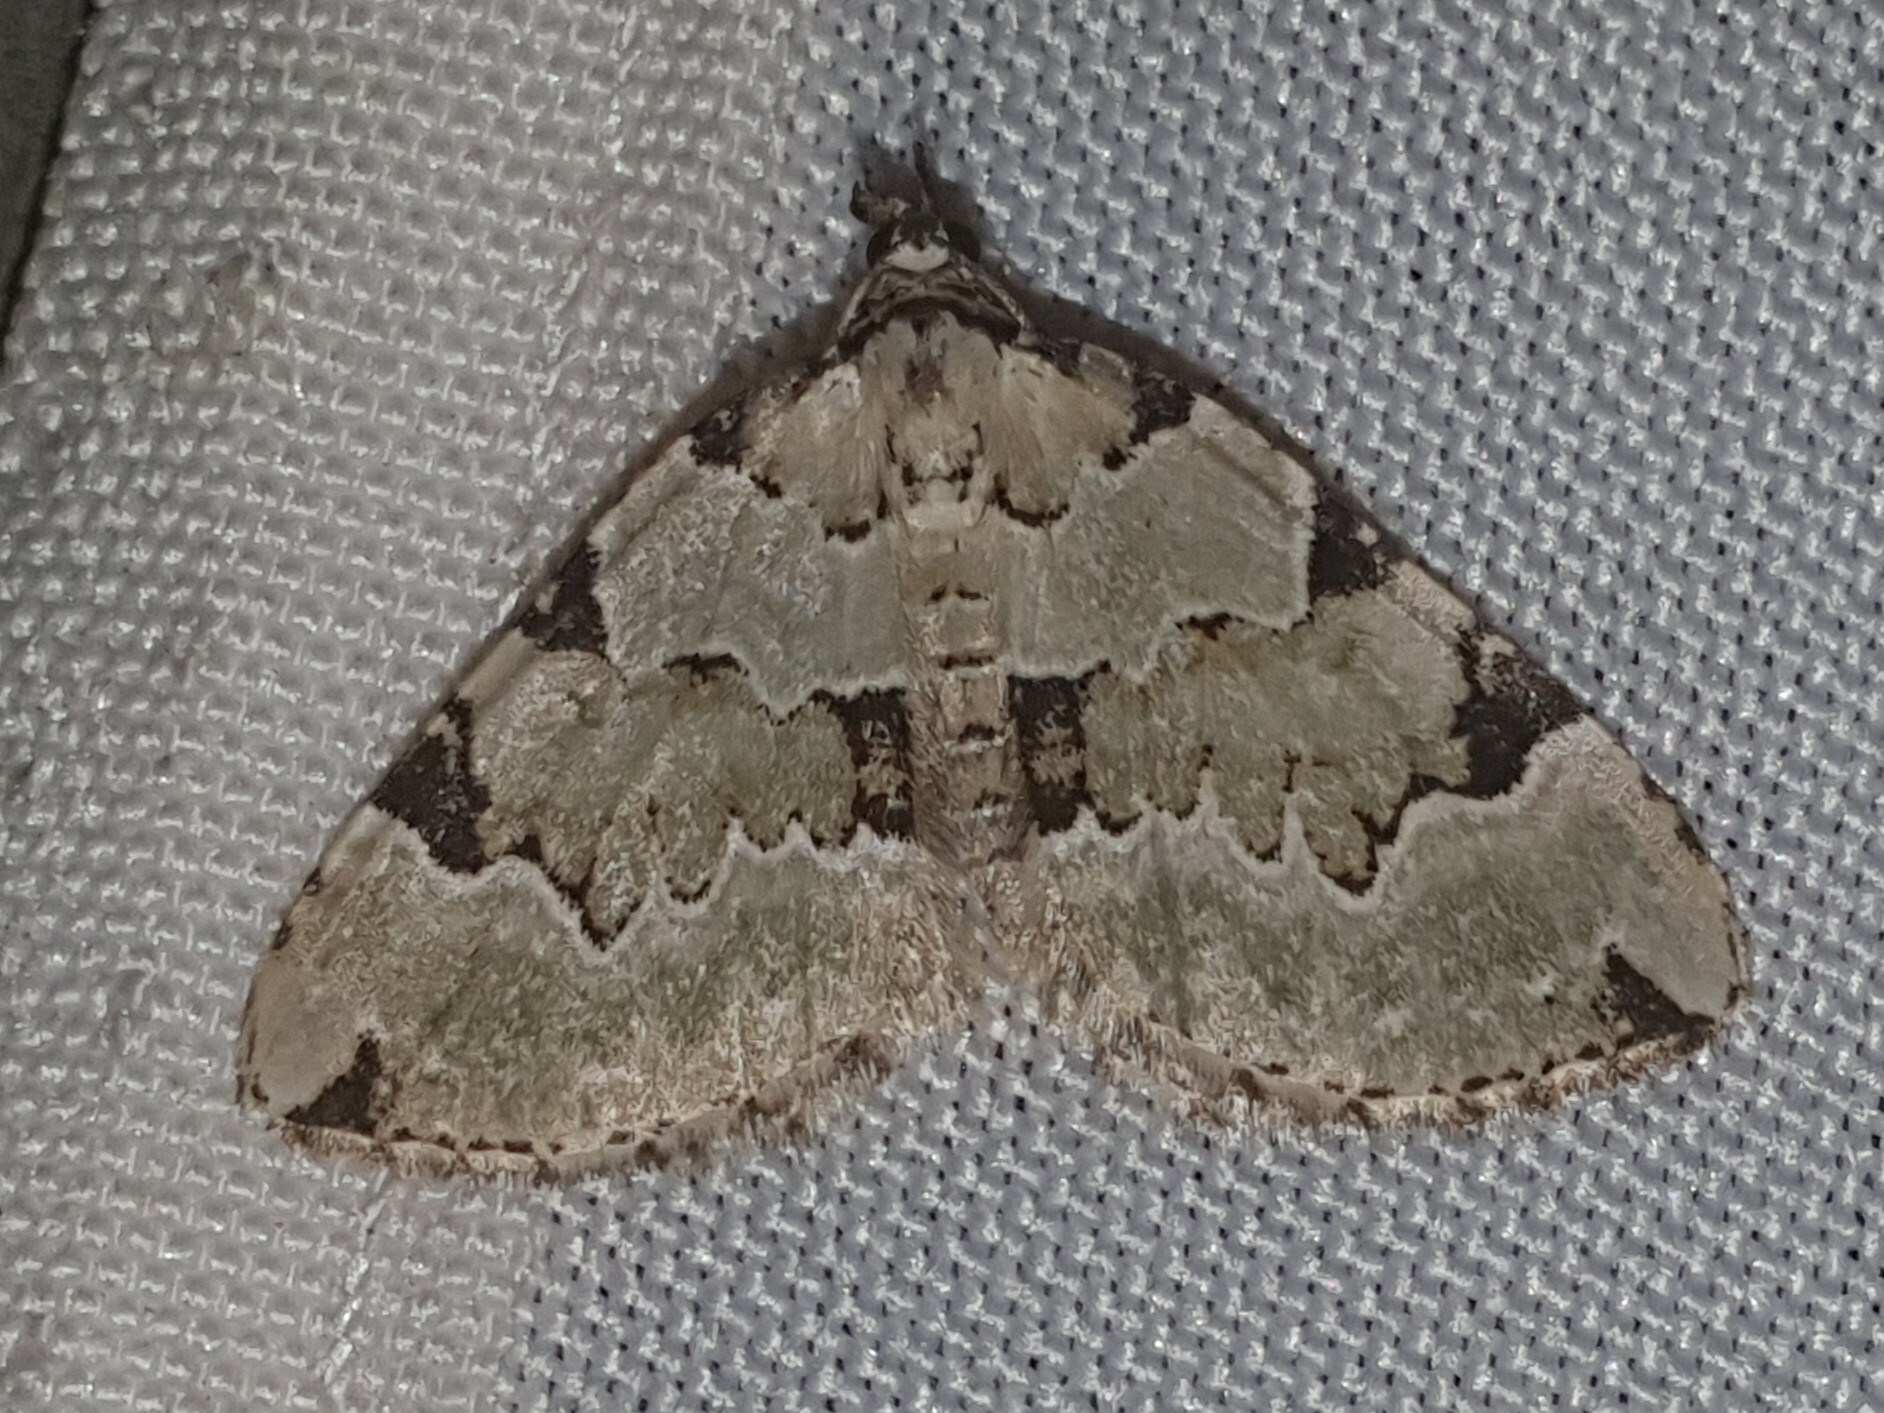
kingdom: Animalia
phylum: Arthropoda
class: Insecta
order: Lepidoptera
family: Geometridae
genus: Colostygia
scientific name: Colostygia pectinataria
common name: Green carpet
